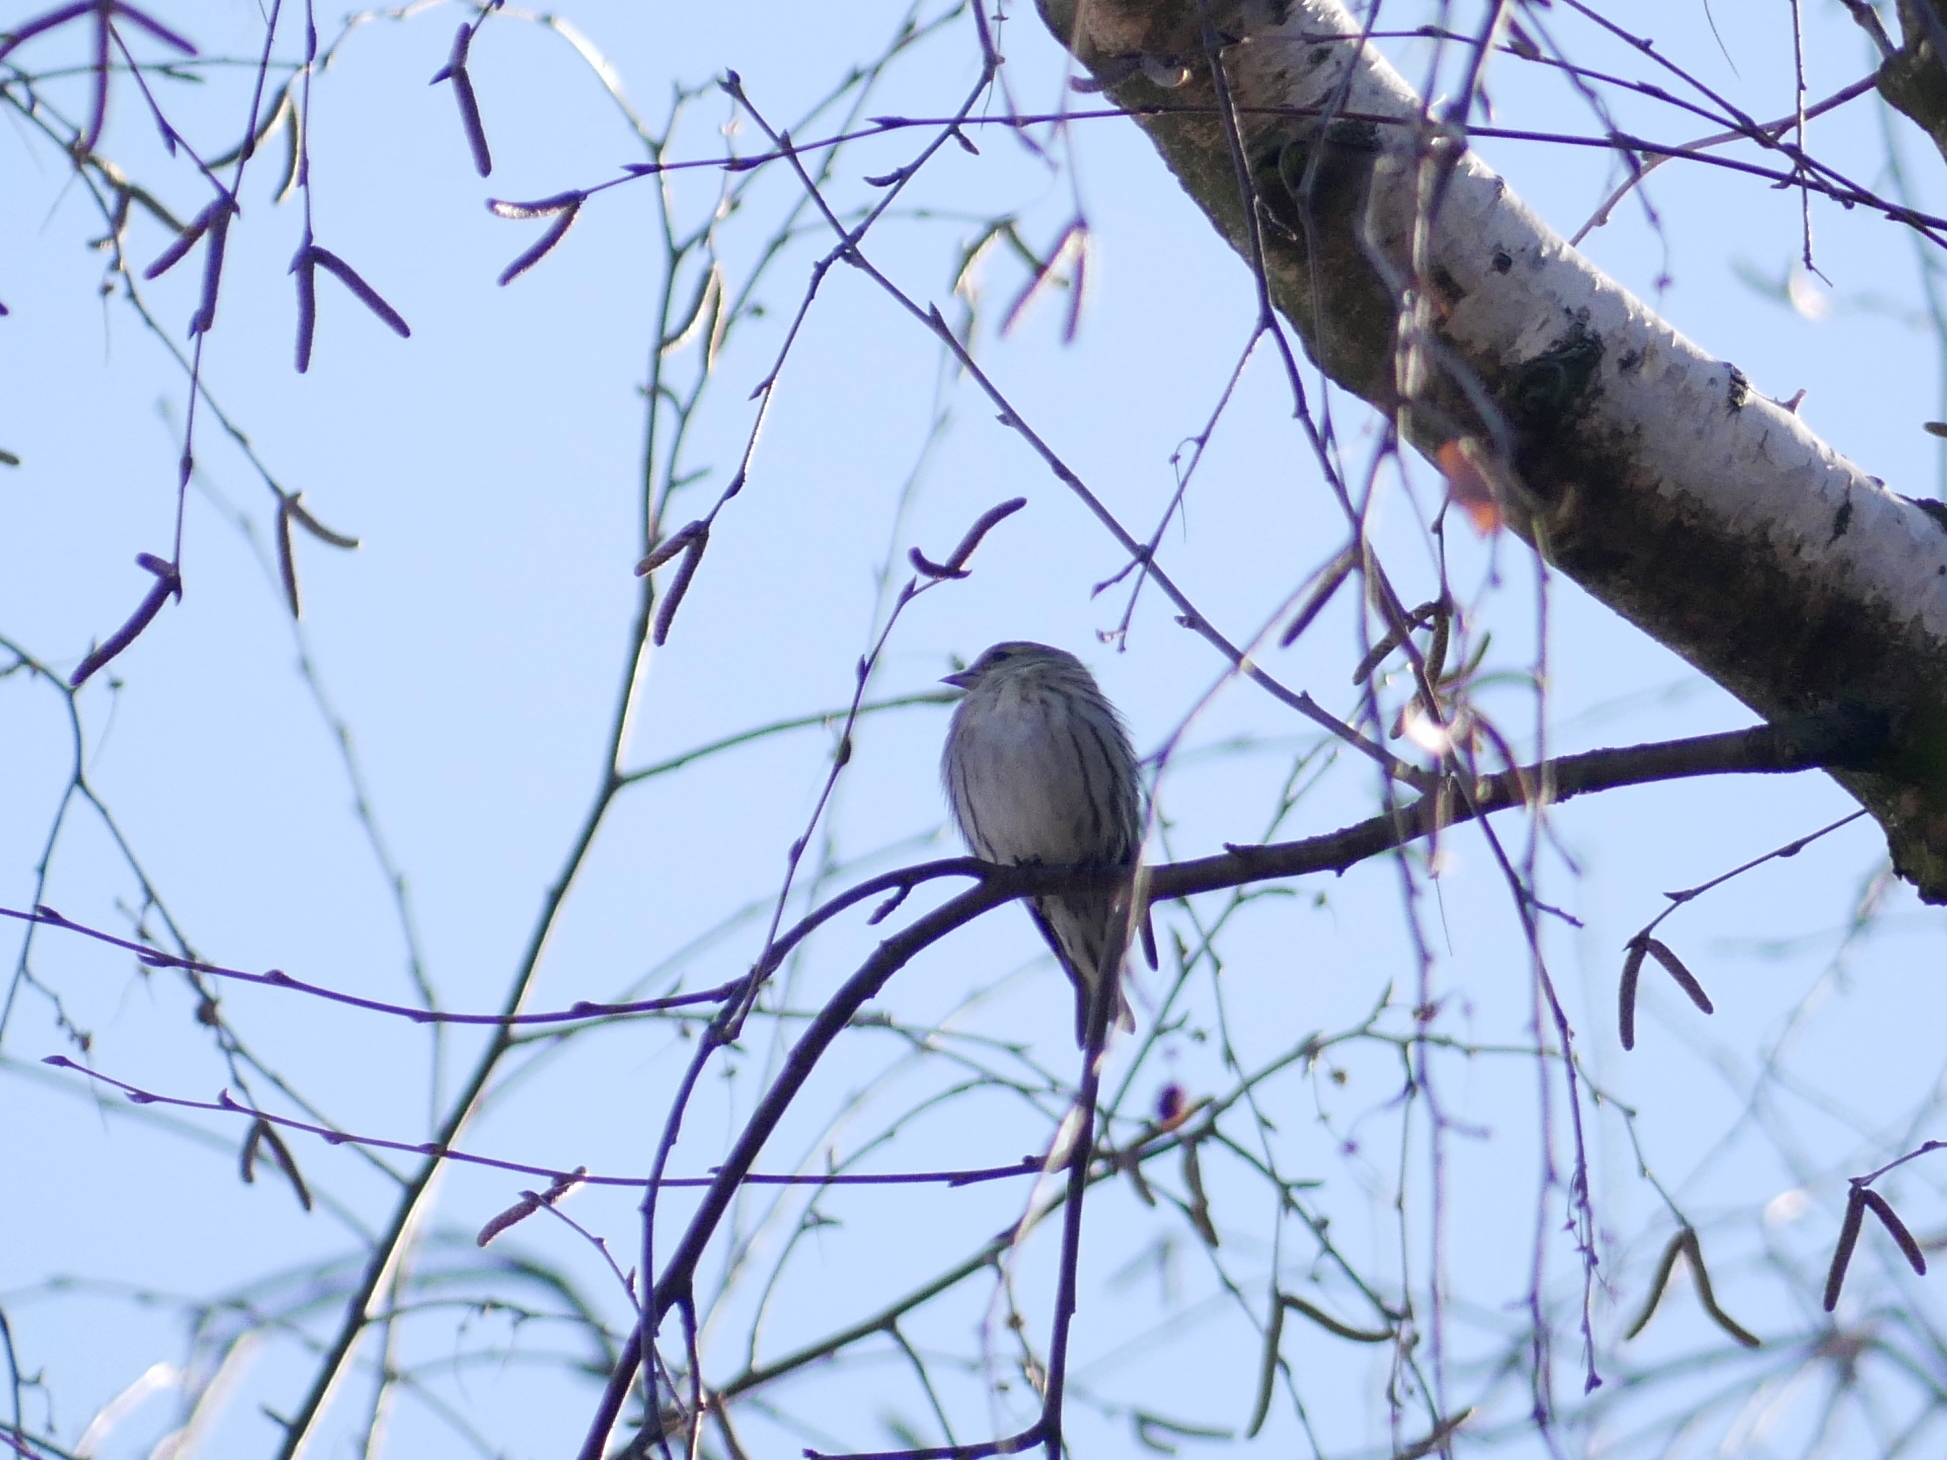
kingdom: Animalia
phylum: Chordata
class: Aves
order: Passeriformes
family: Fringillidae
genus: Spinus
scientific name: Spinus spinus
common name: Eurasian siskin
